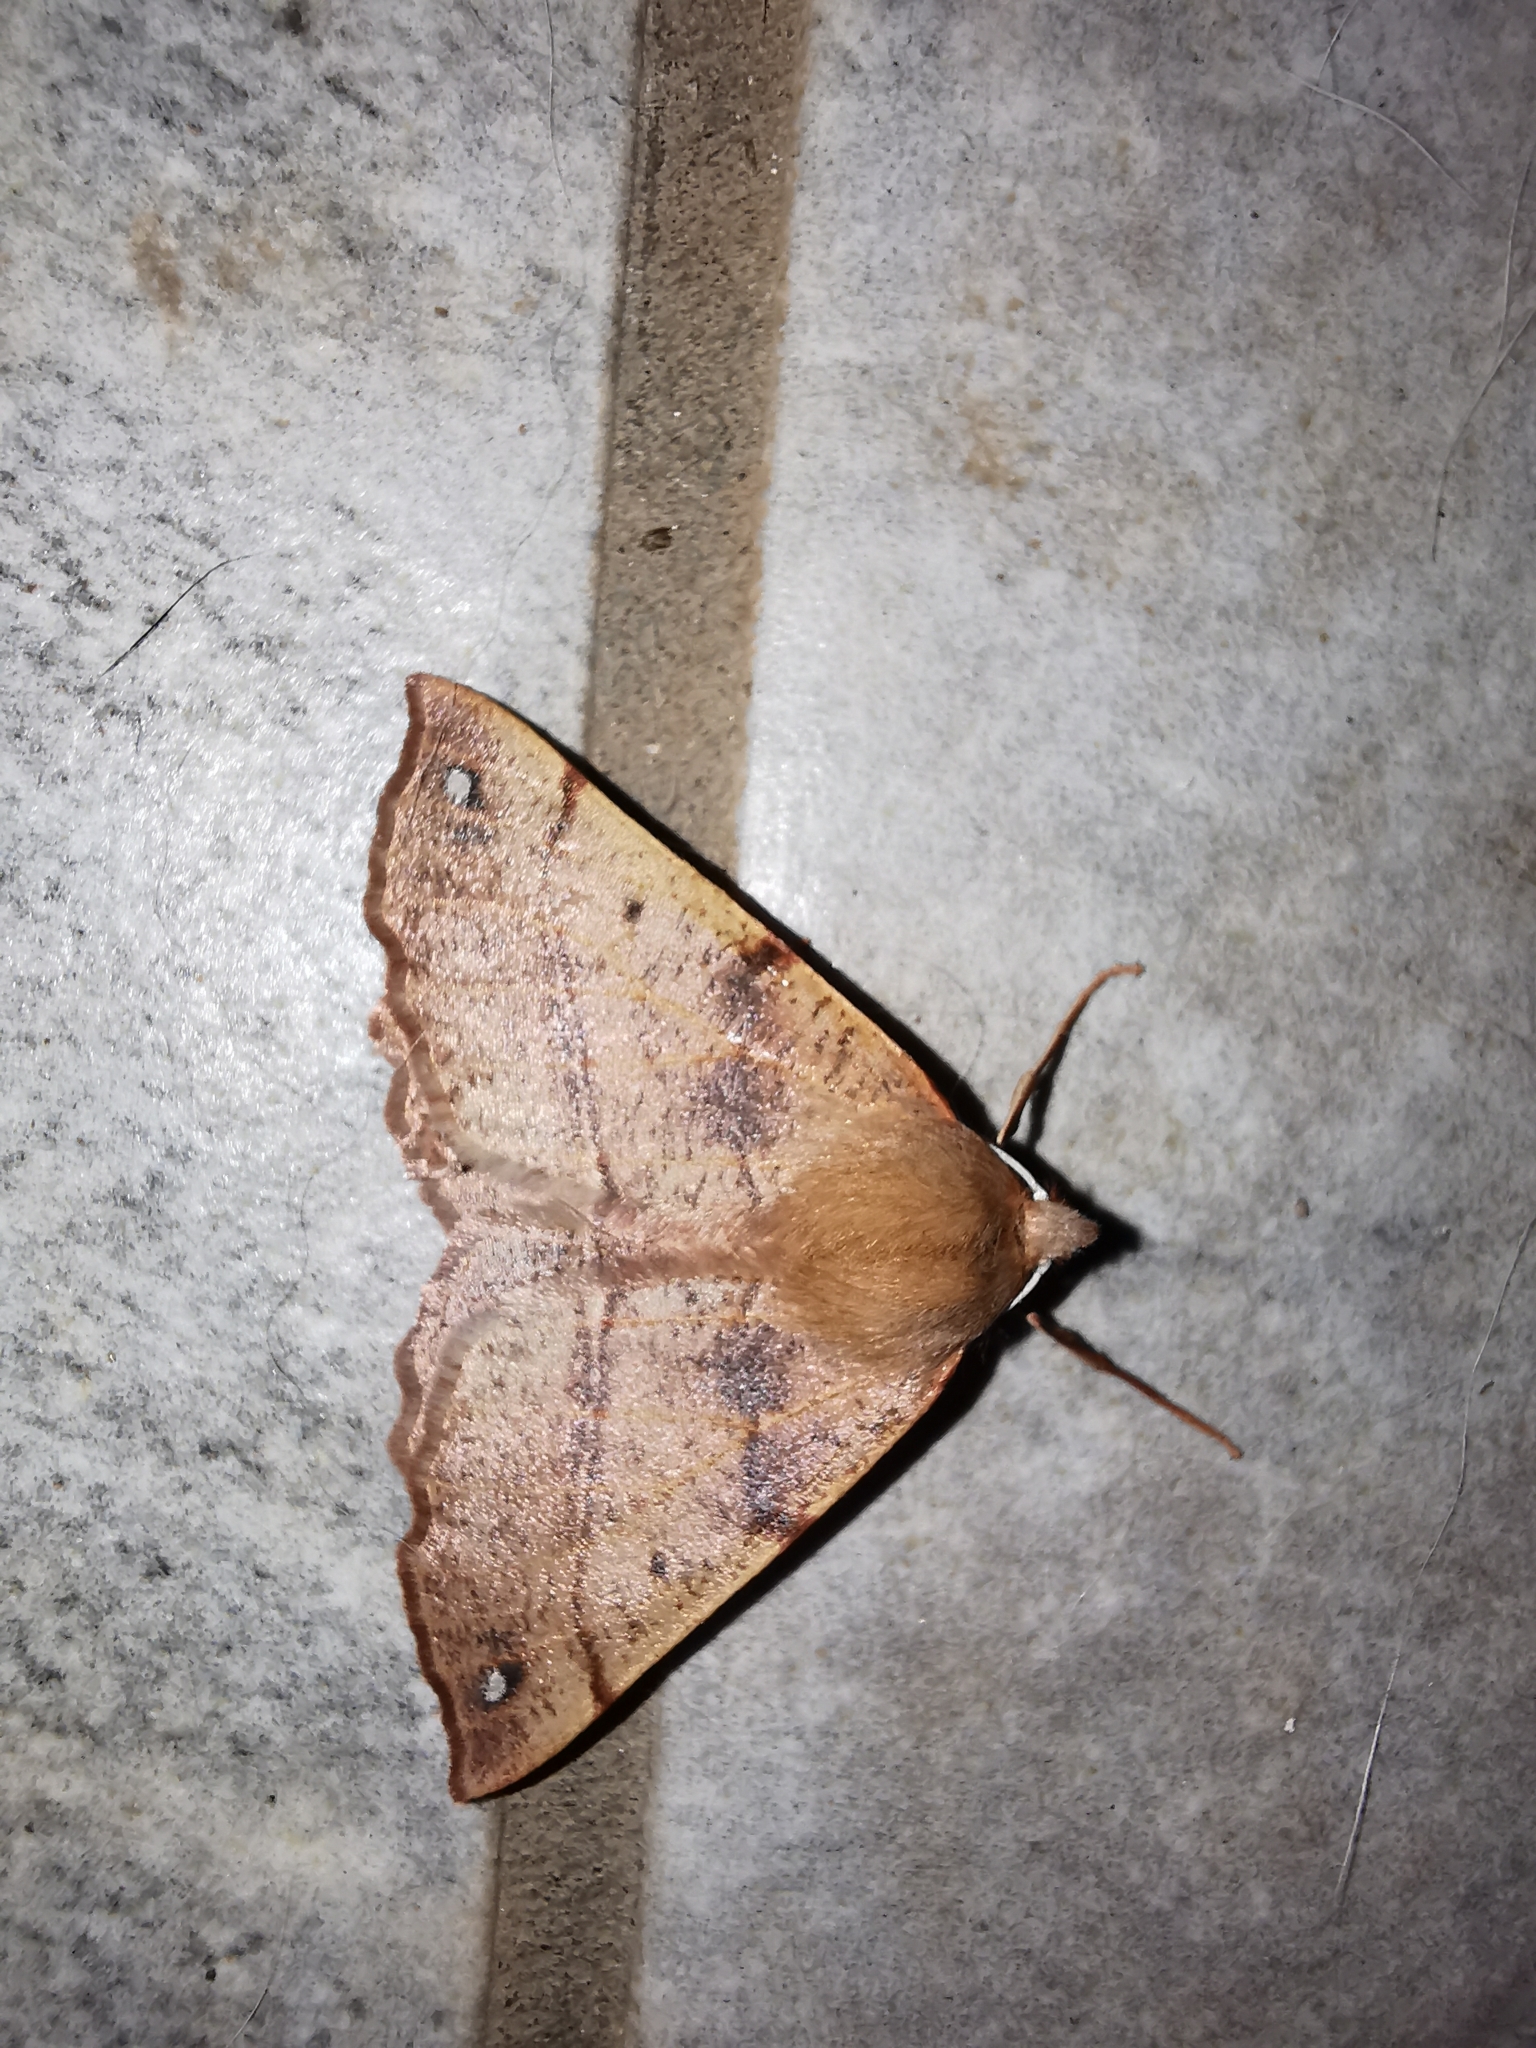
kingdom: Animalia
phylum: Arthropoda
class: Insecta
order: Lepidoptera
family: Geometridae
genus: Colotois
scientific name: Colotois pennaria
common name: Feathered thorn
